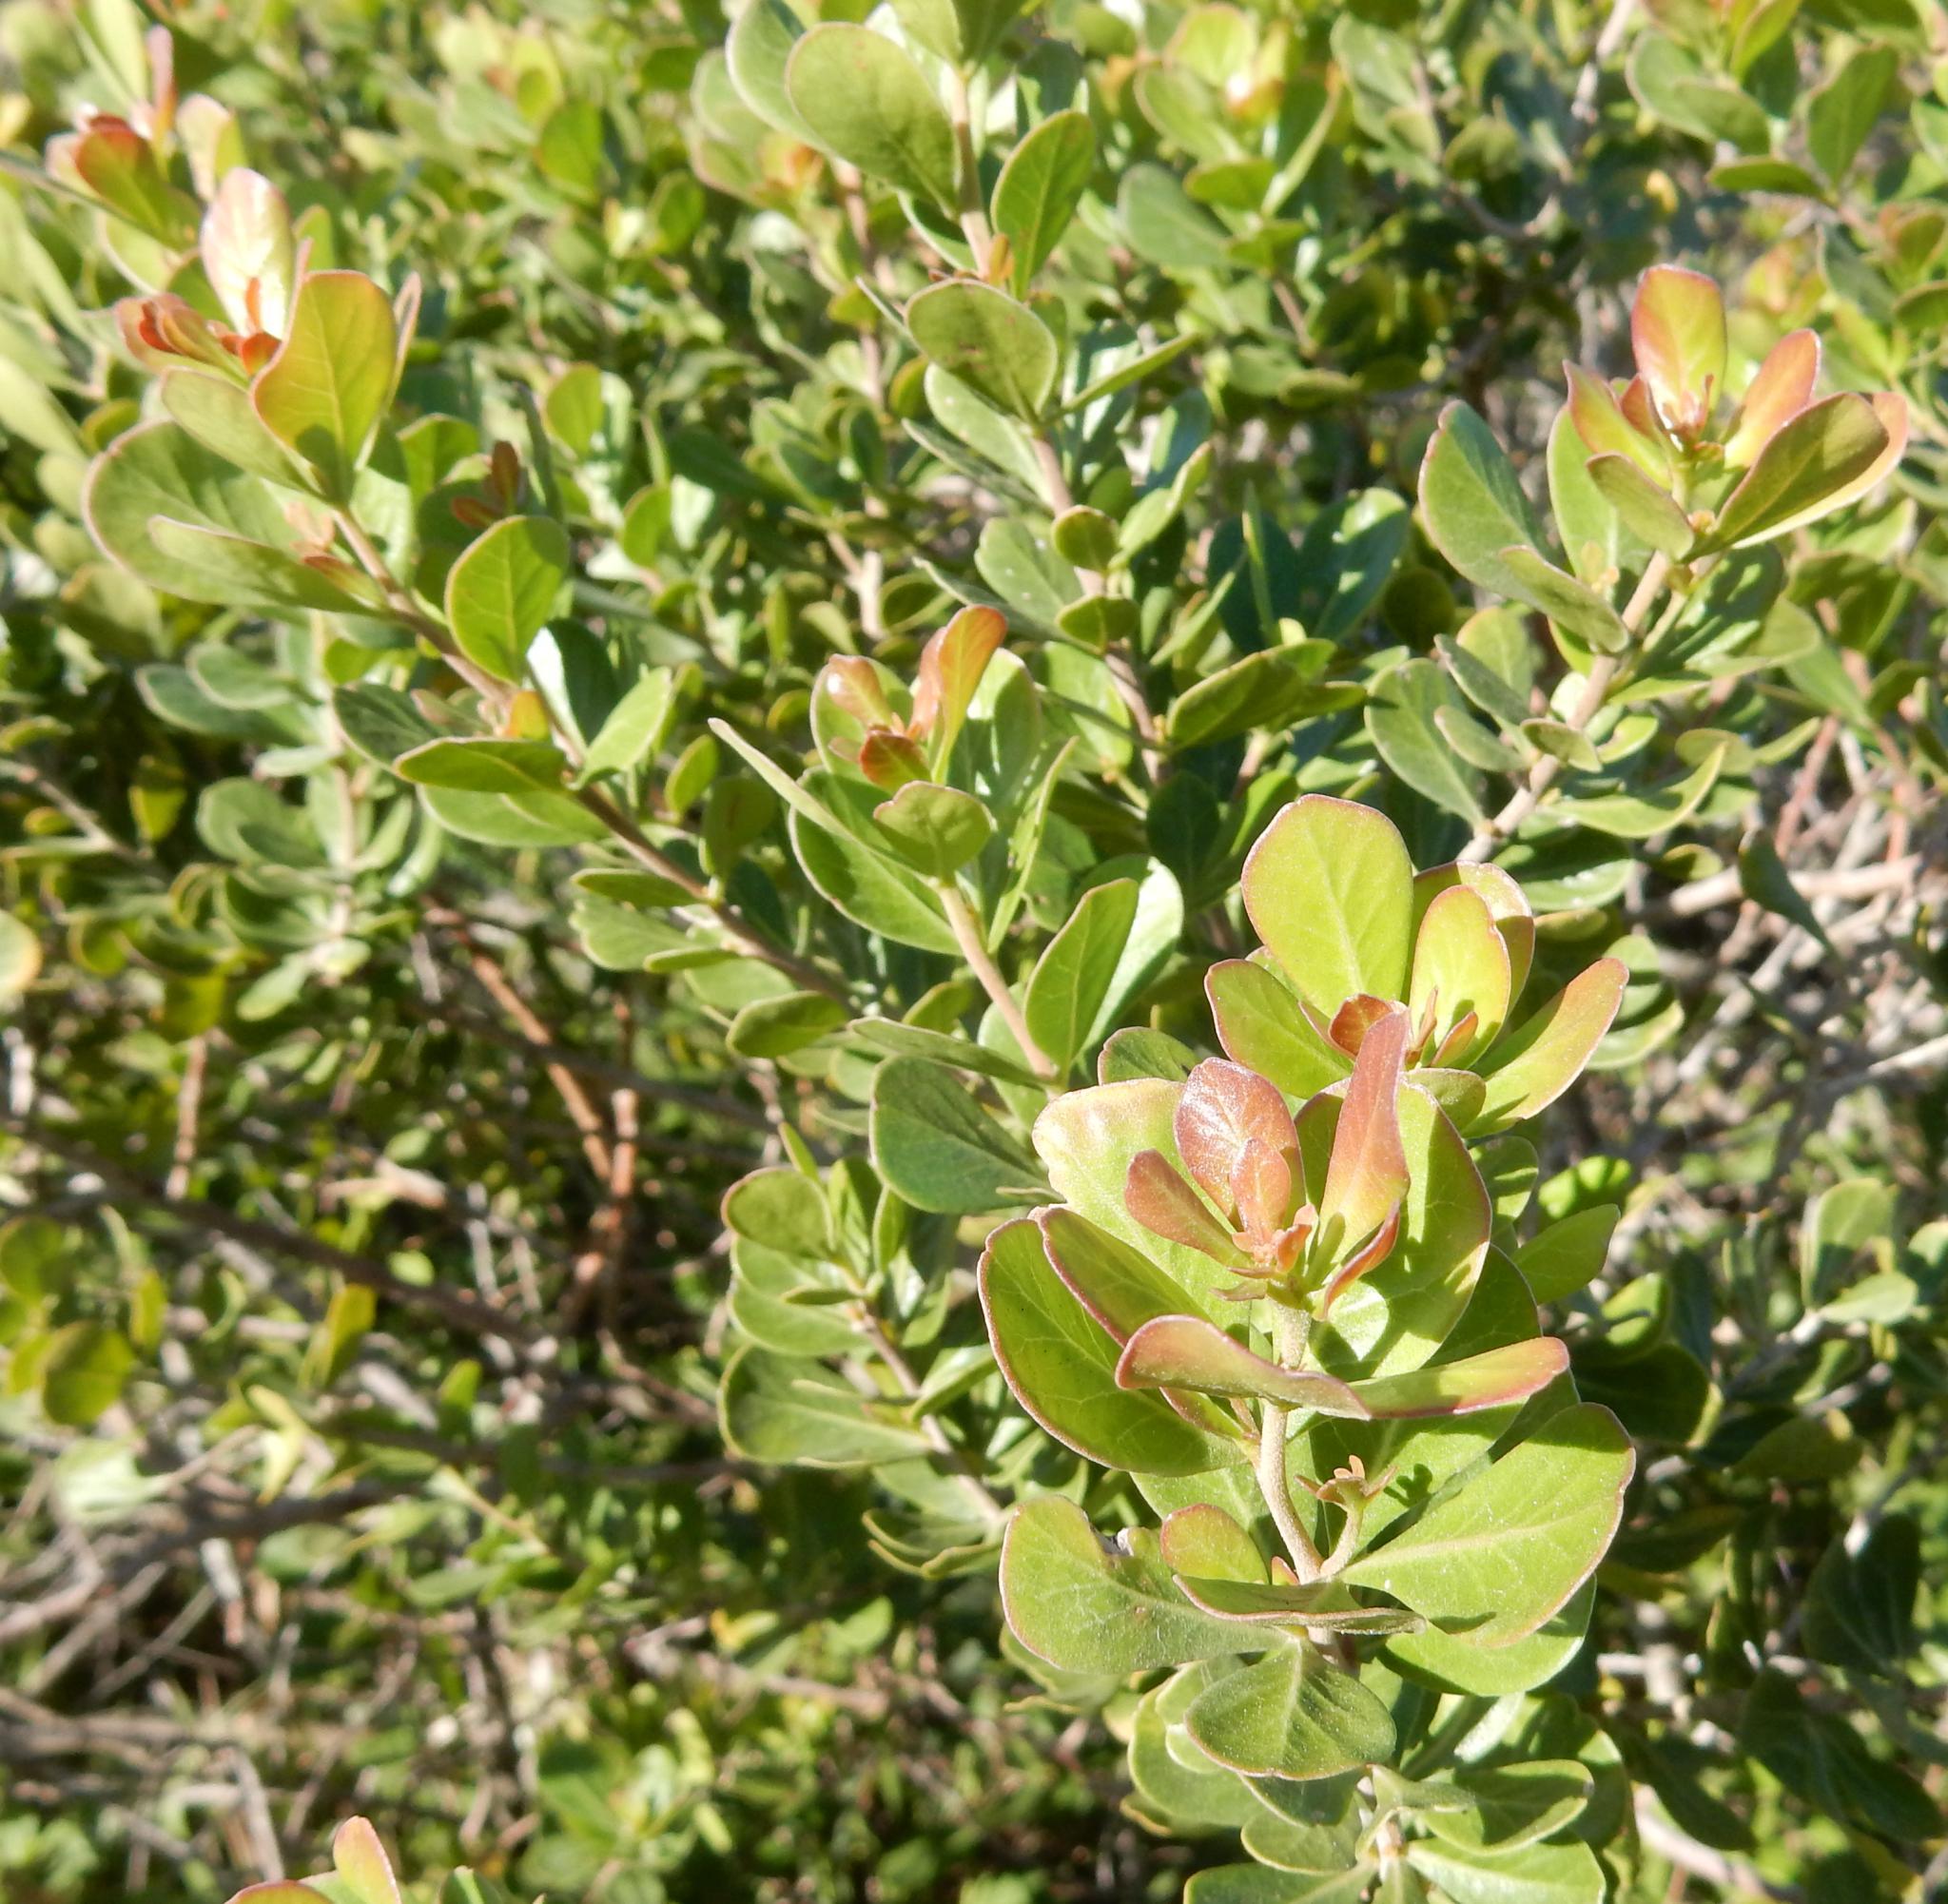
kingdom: Plantae
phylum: Tracheophyta
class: Magnoliopsida
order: Sapindales
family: Anacardiaceae
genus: Searsia
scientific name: Searsia lucida
